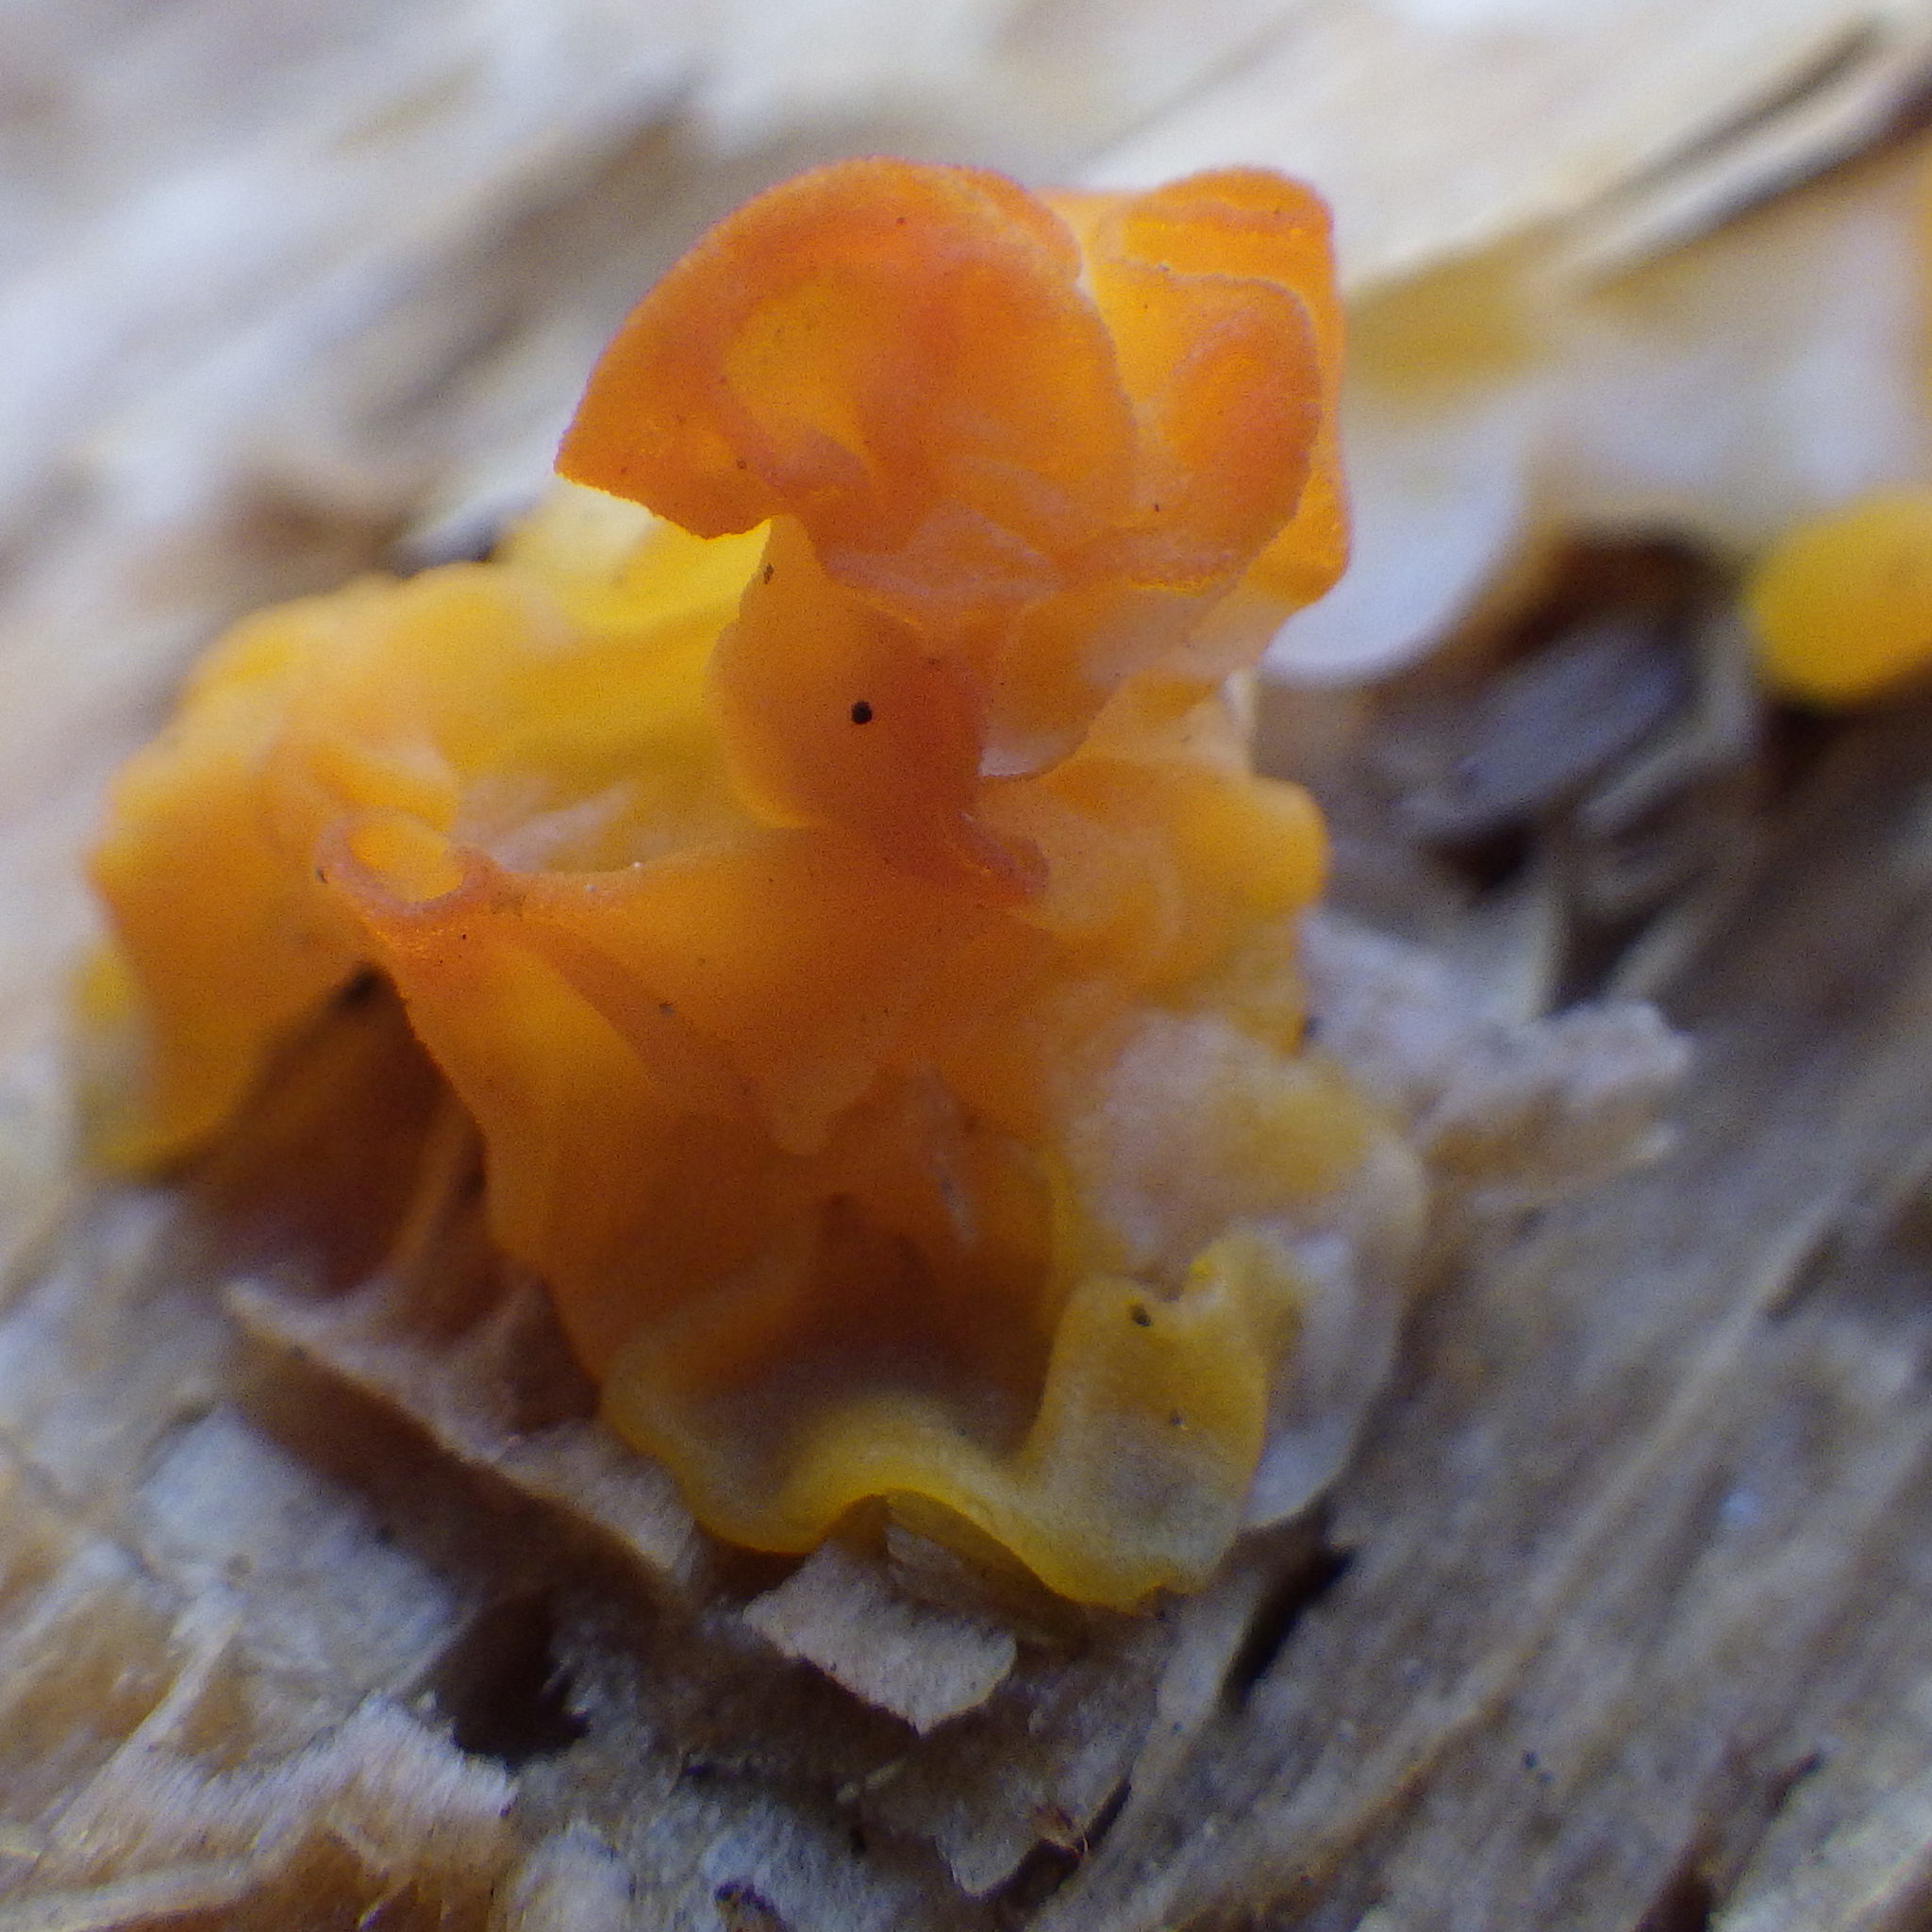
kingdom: Fungi
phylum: Basidiomycota
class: Dacrymycetes
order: Dacrymycetales
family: Dacrymycetaceae
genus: Dacrymyces
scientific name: Dacrymyces chrysospermus
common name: Orange jelly spot
